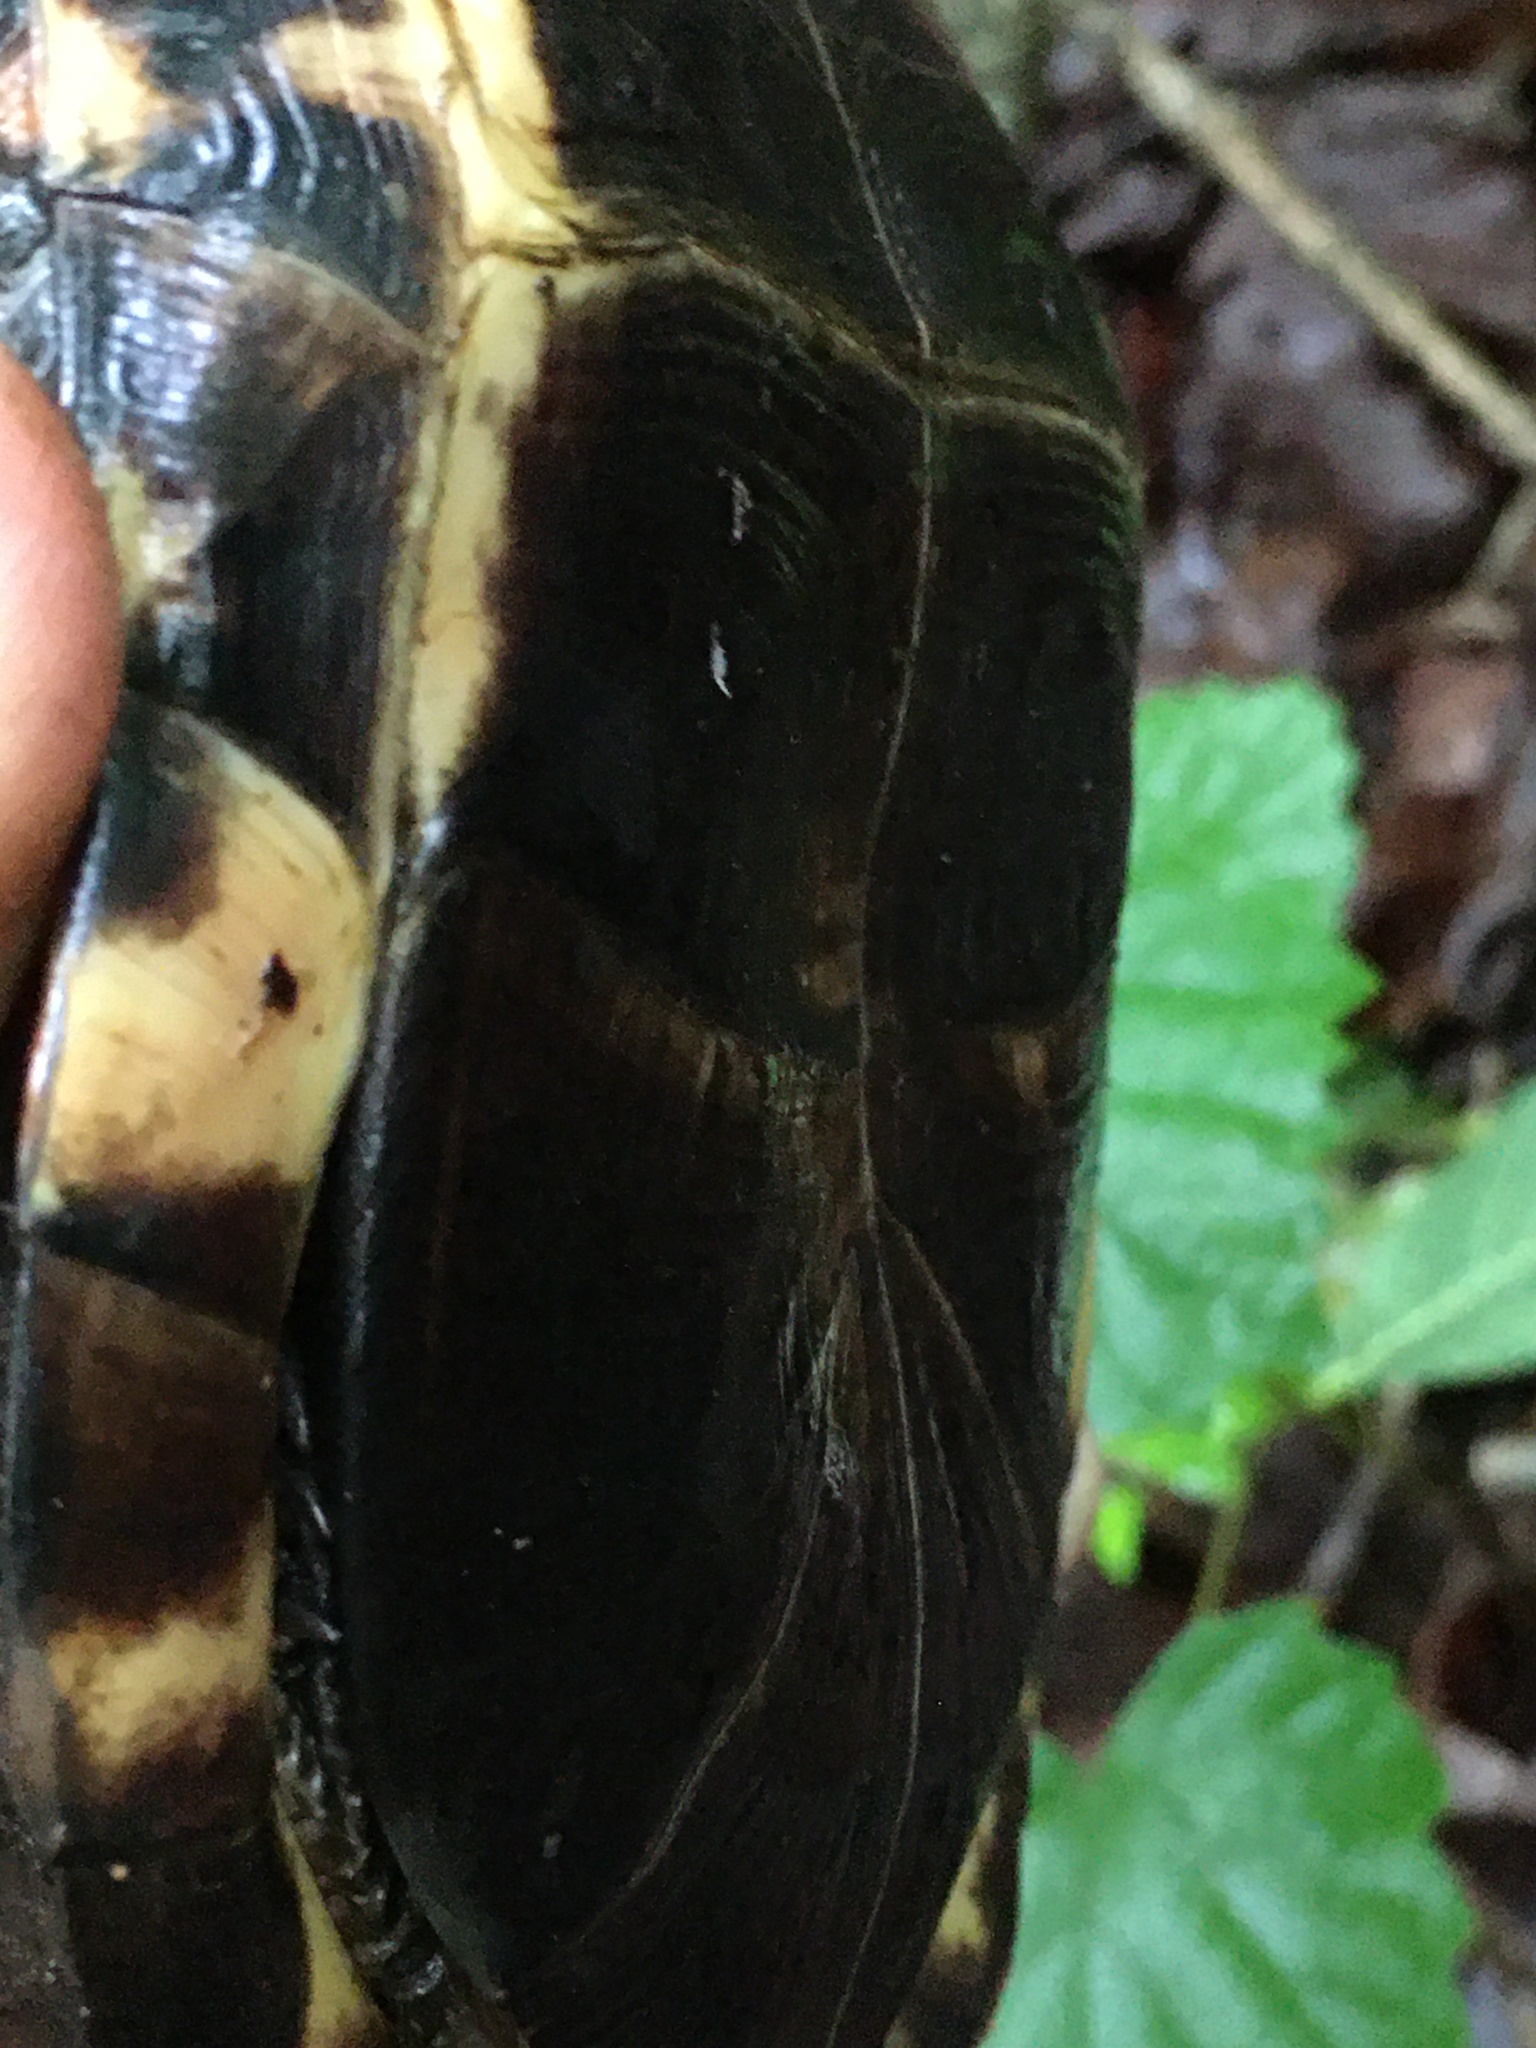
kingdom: Animalia
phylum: Chordata
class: Testudines
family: Emydidae
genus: Terrapene
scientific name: Terrapene carolina
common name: Common box turtle
